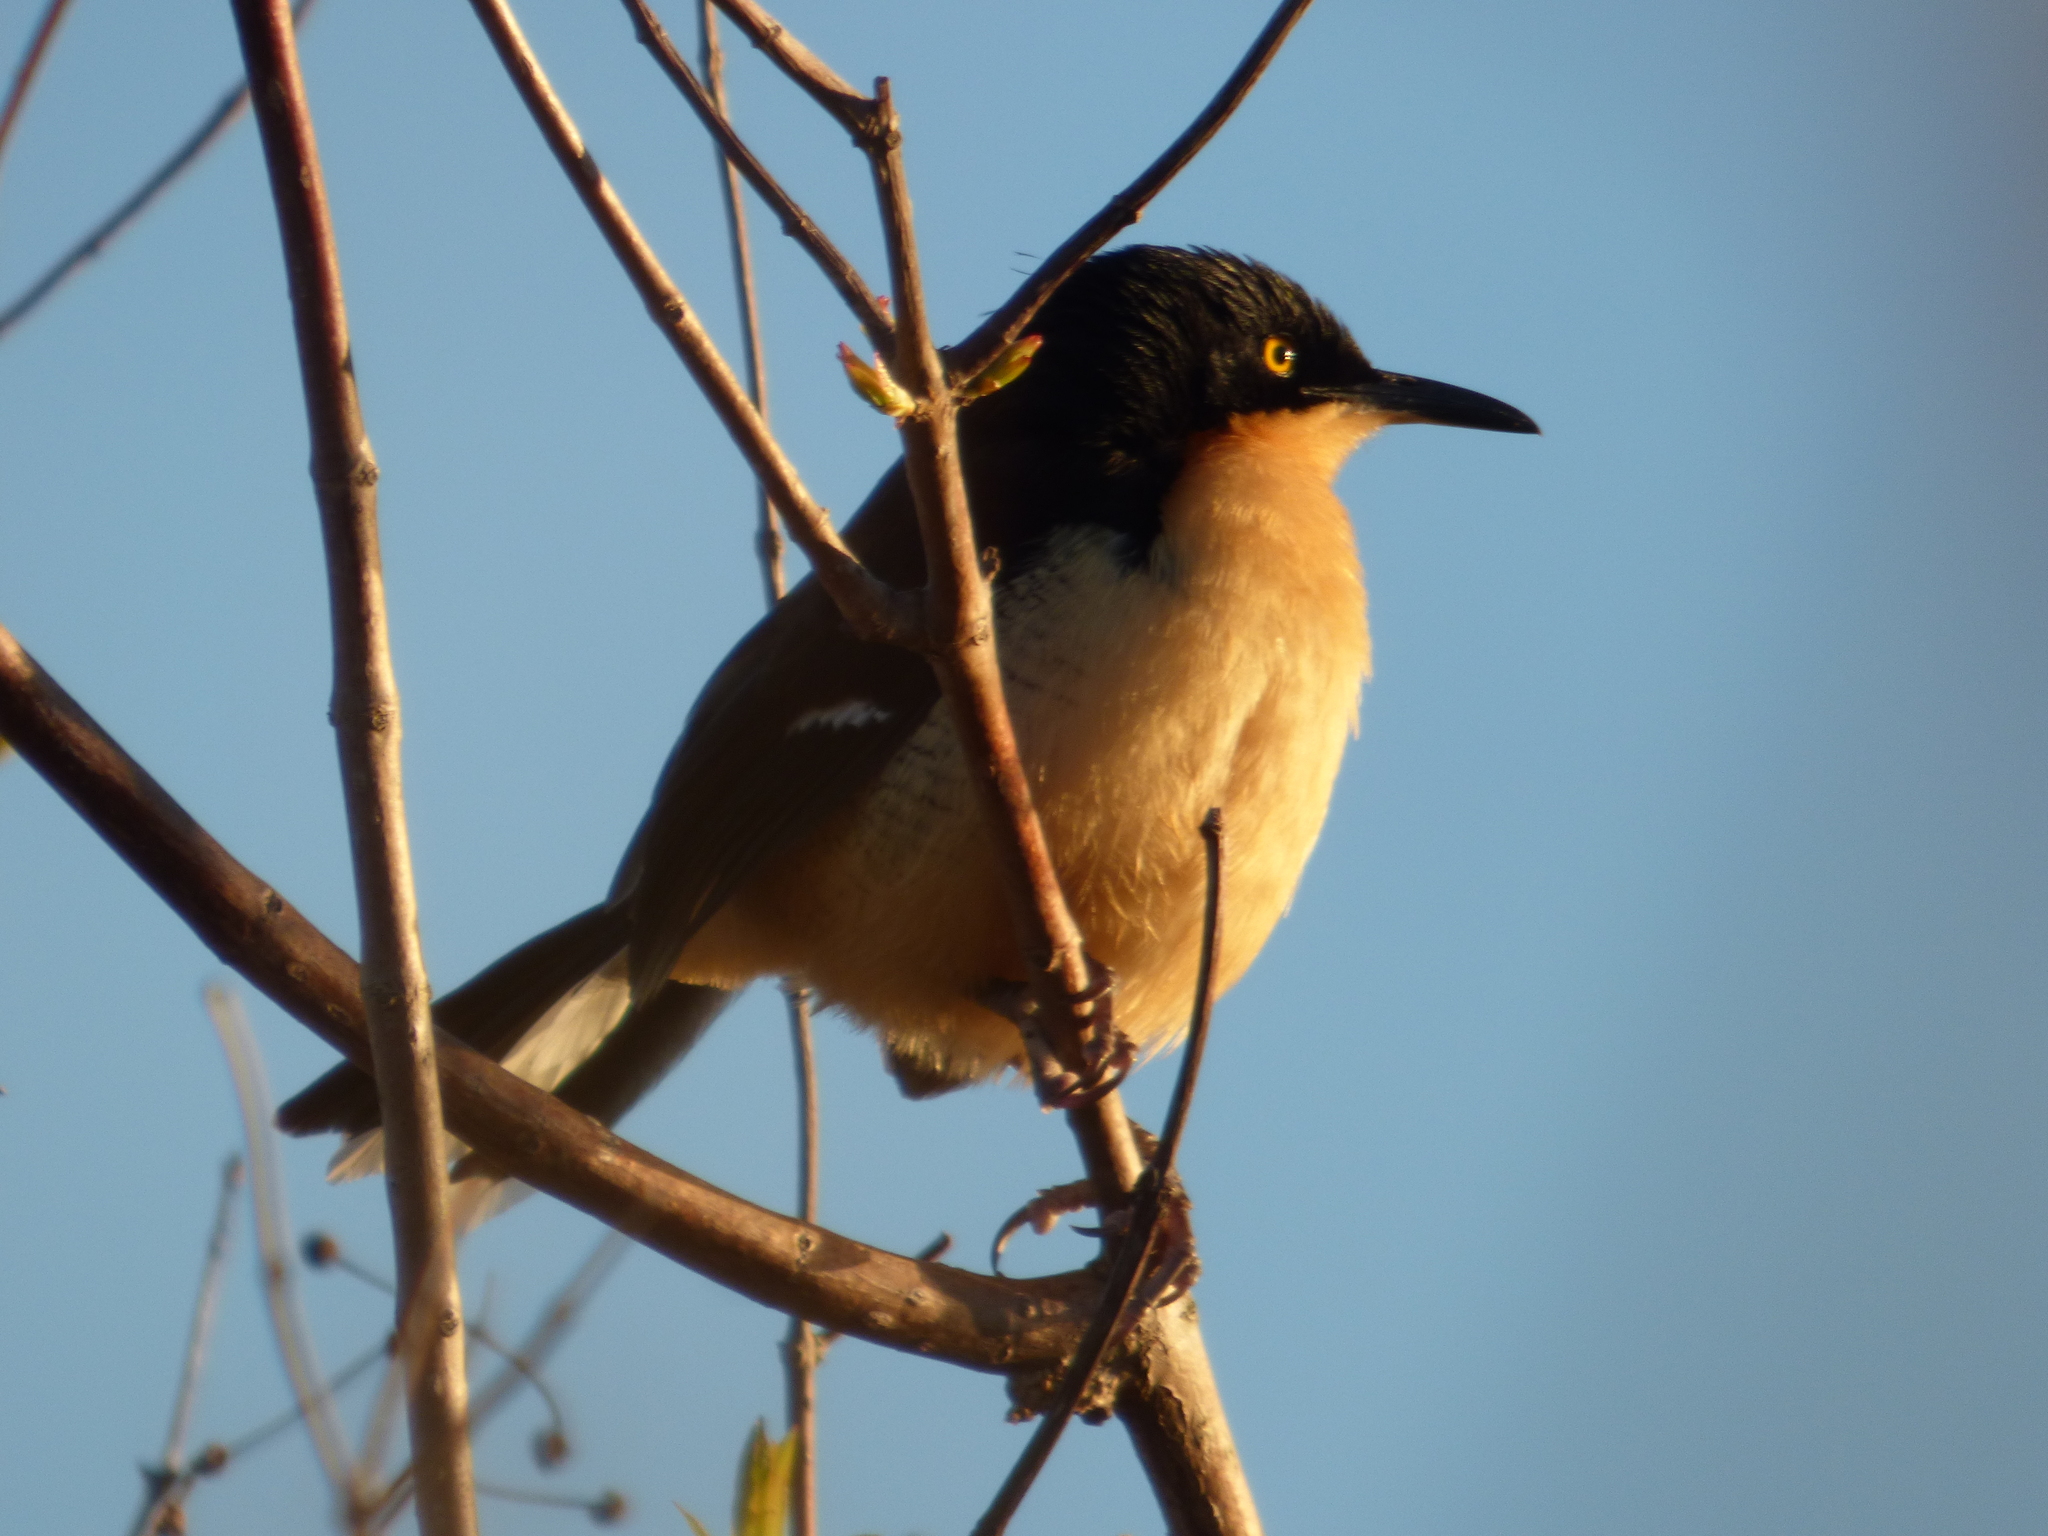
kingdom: Animalia
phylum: Chordata
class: Aves
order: Passeriformes
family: Donacobiidae
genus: Donacobius
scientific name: Donacobius atricapilla
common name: Black-capped donacobius
